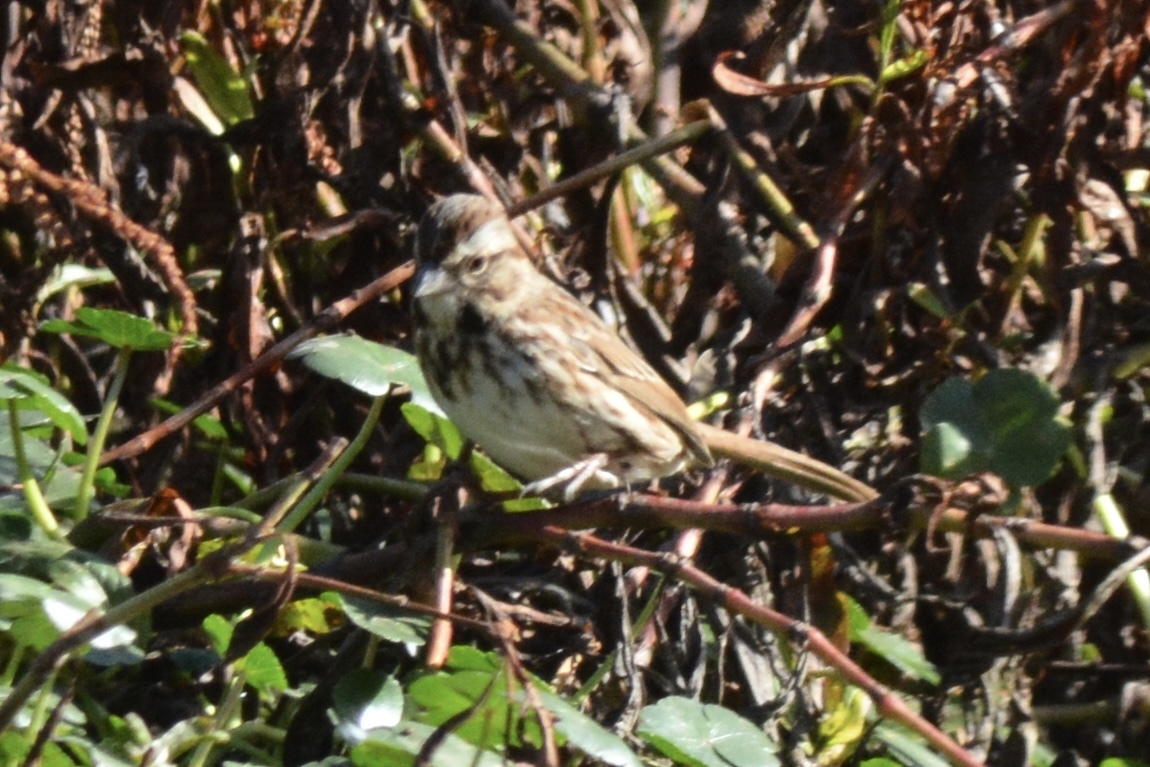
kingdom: Animalia
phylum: Chordata
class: Aves
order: Passeriformes
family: Passerellidae
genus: Melospiza
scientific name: Melospiza melodia
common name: Song sparrow
